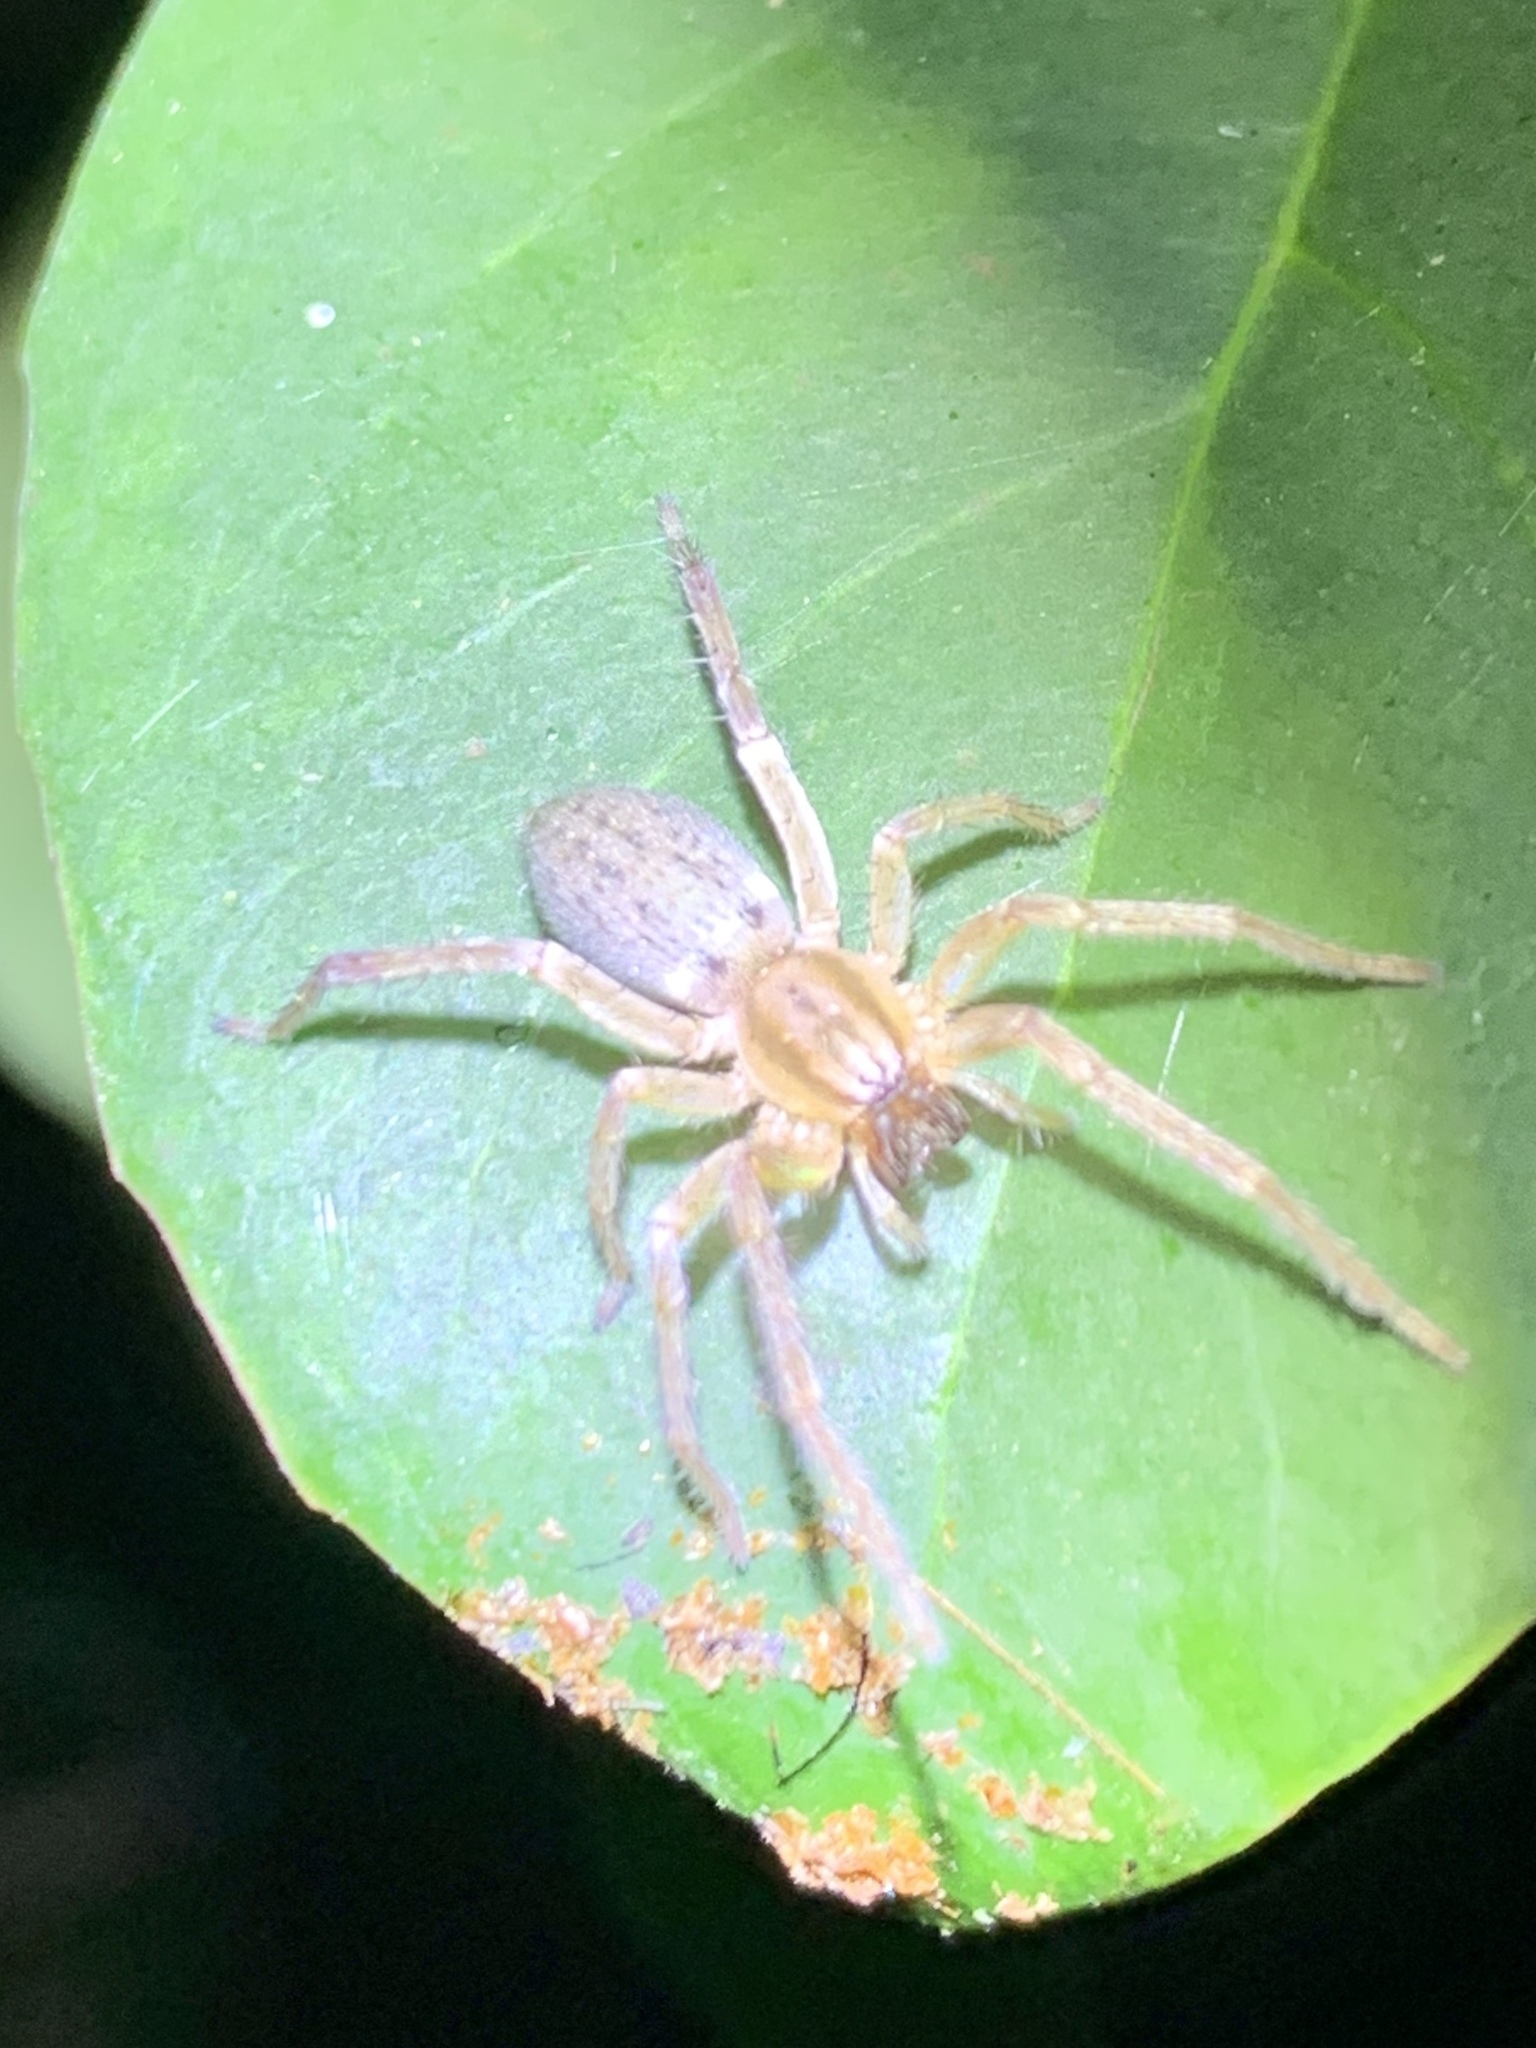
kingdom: Animalia
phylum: Arthropoda
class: Arachnida
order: Araneae
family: Anyphaenidae
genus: Hibana
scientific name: Hibana gracilis
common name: Garden ghost spider
